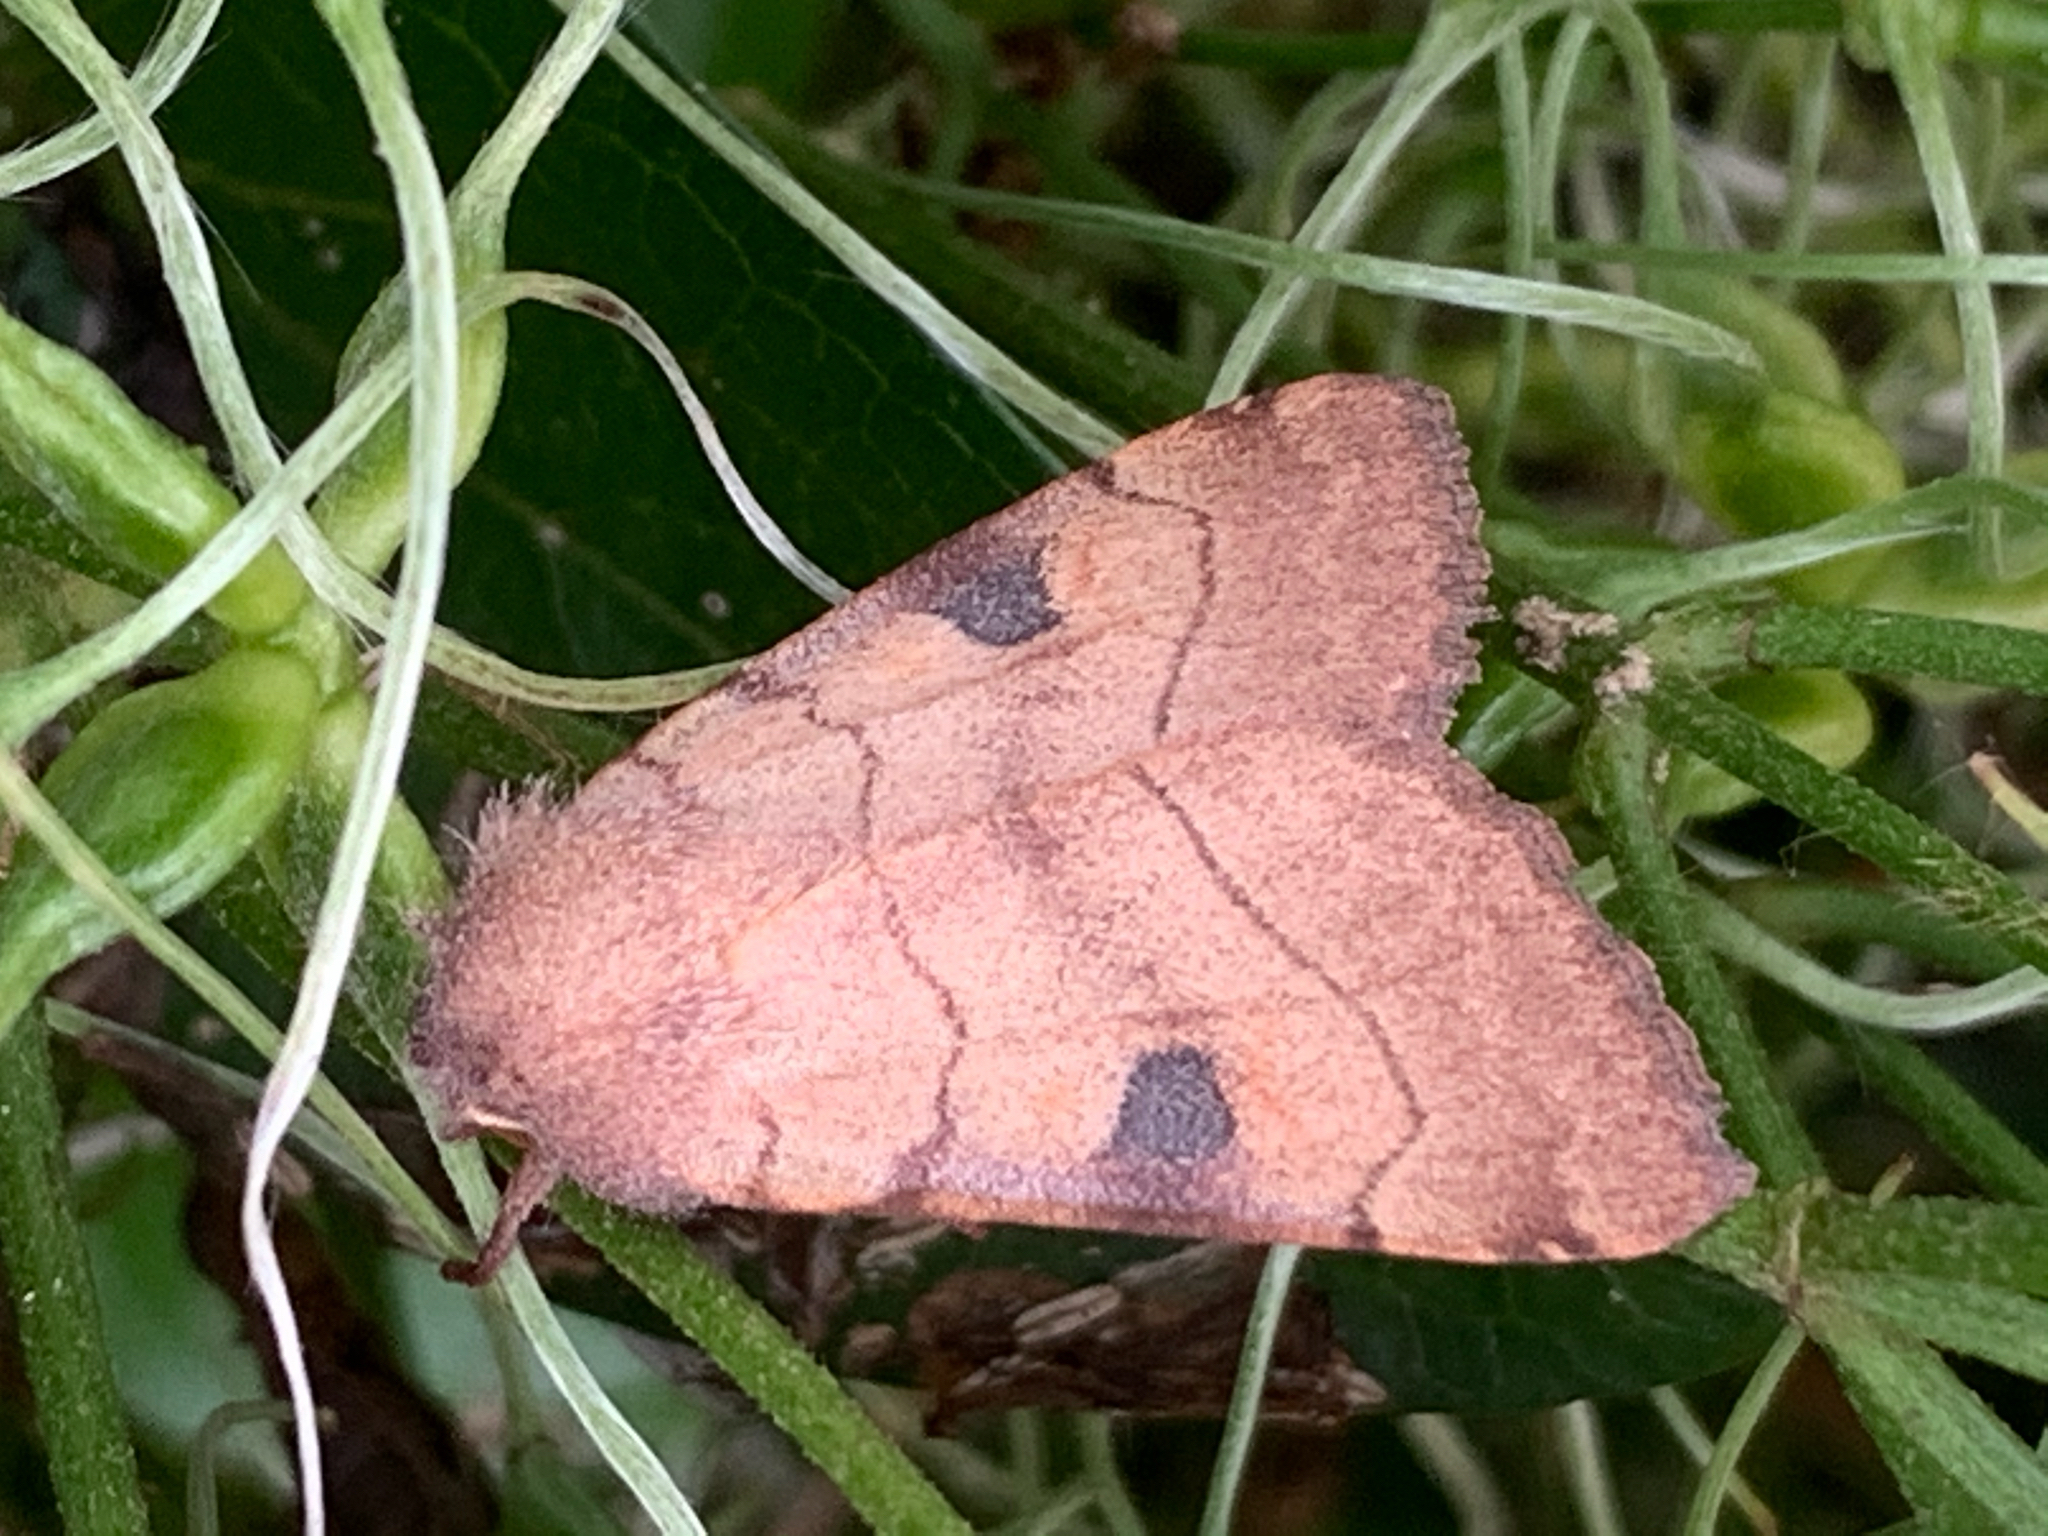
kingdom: Animalia
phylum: Arthropoda
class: Insecta
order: Lepidoptera
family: Noctuidae
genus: Choephora
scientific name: Choephora fungorum
